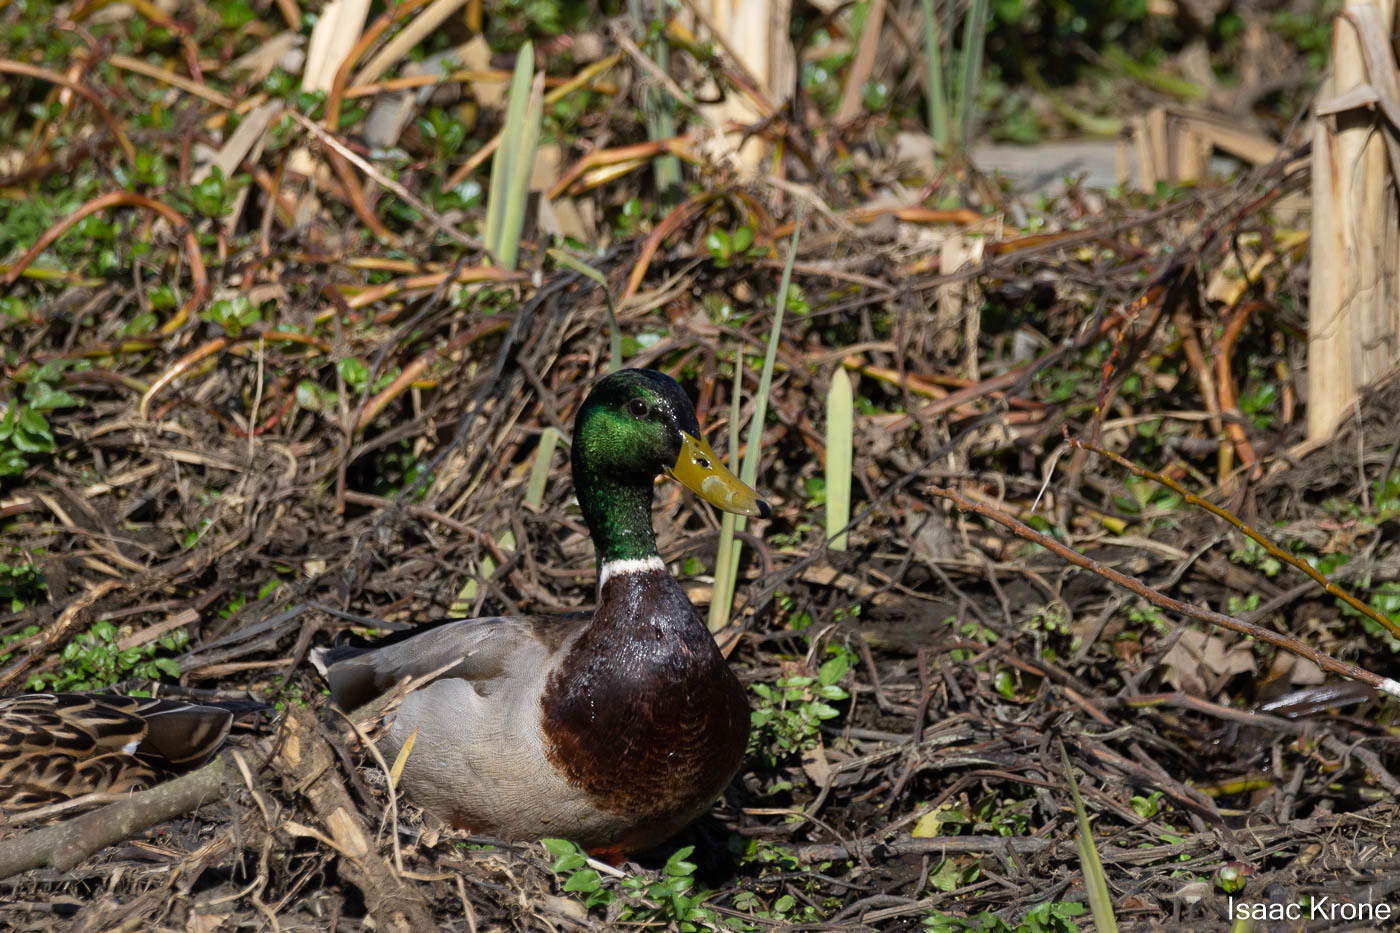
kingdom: Animalia
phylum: Chordata
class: Aves
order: Anseriformes
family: Anatidae
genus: Anas
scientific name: Anas platyrhynchos
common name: Mallard
